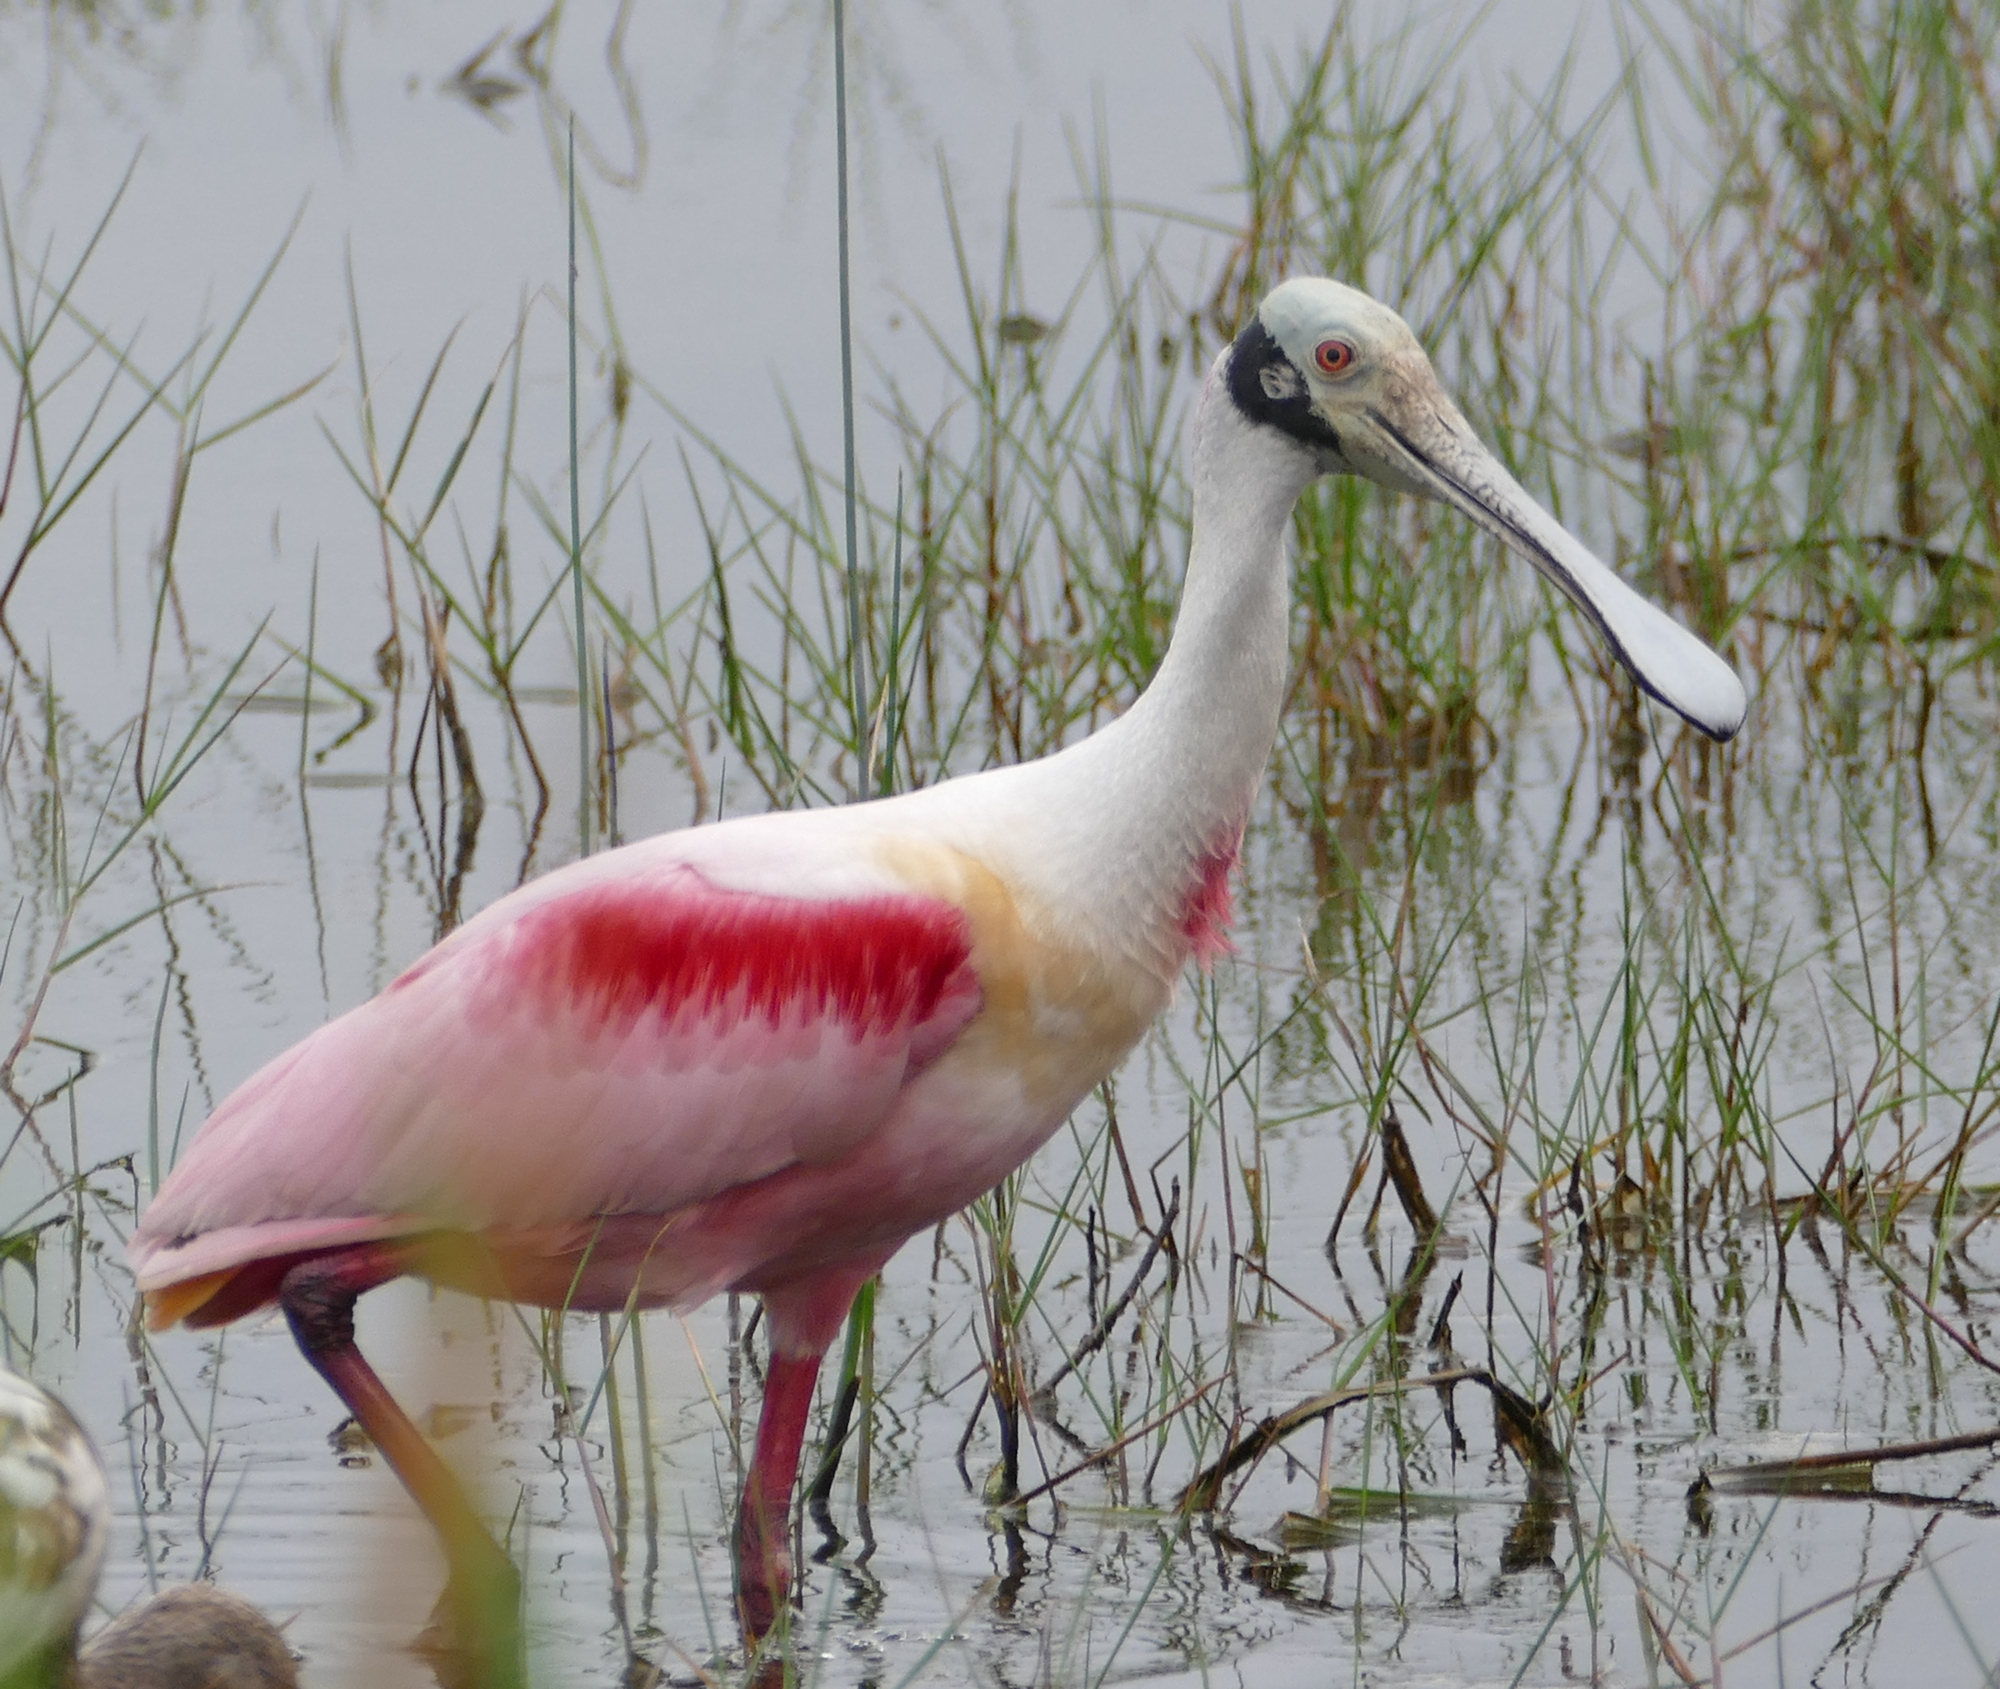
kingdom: Animalia
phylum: Chordata
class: Aves
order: Pelecaniformes
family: Threskiornithidae
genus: Platalea
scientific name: Platalea ajaja
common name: Roseate spoonbill
